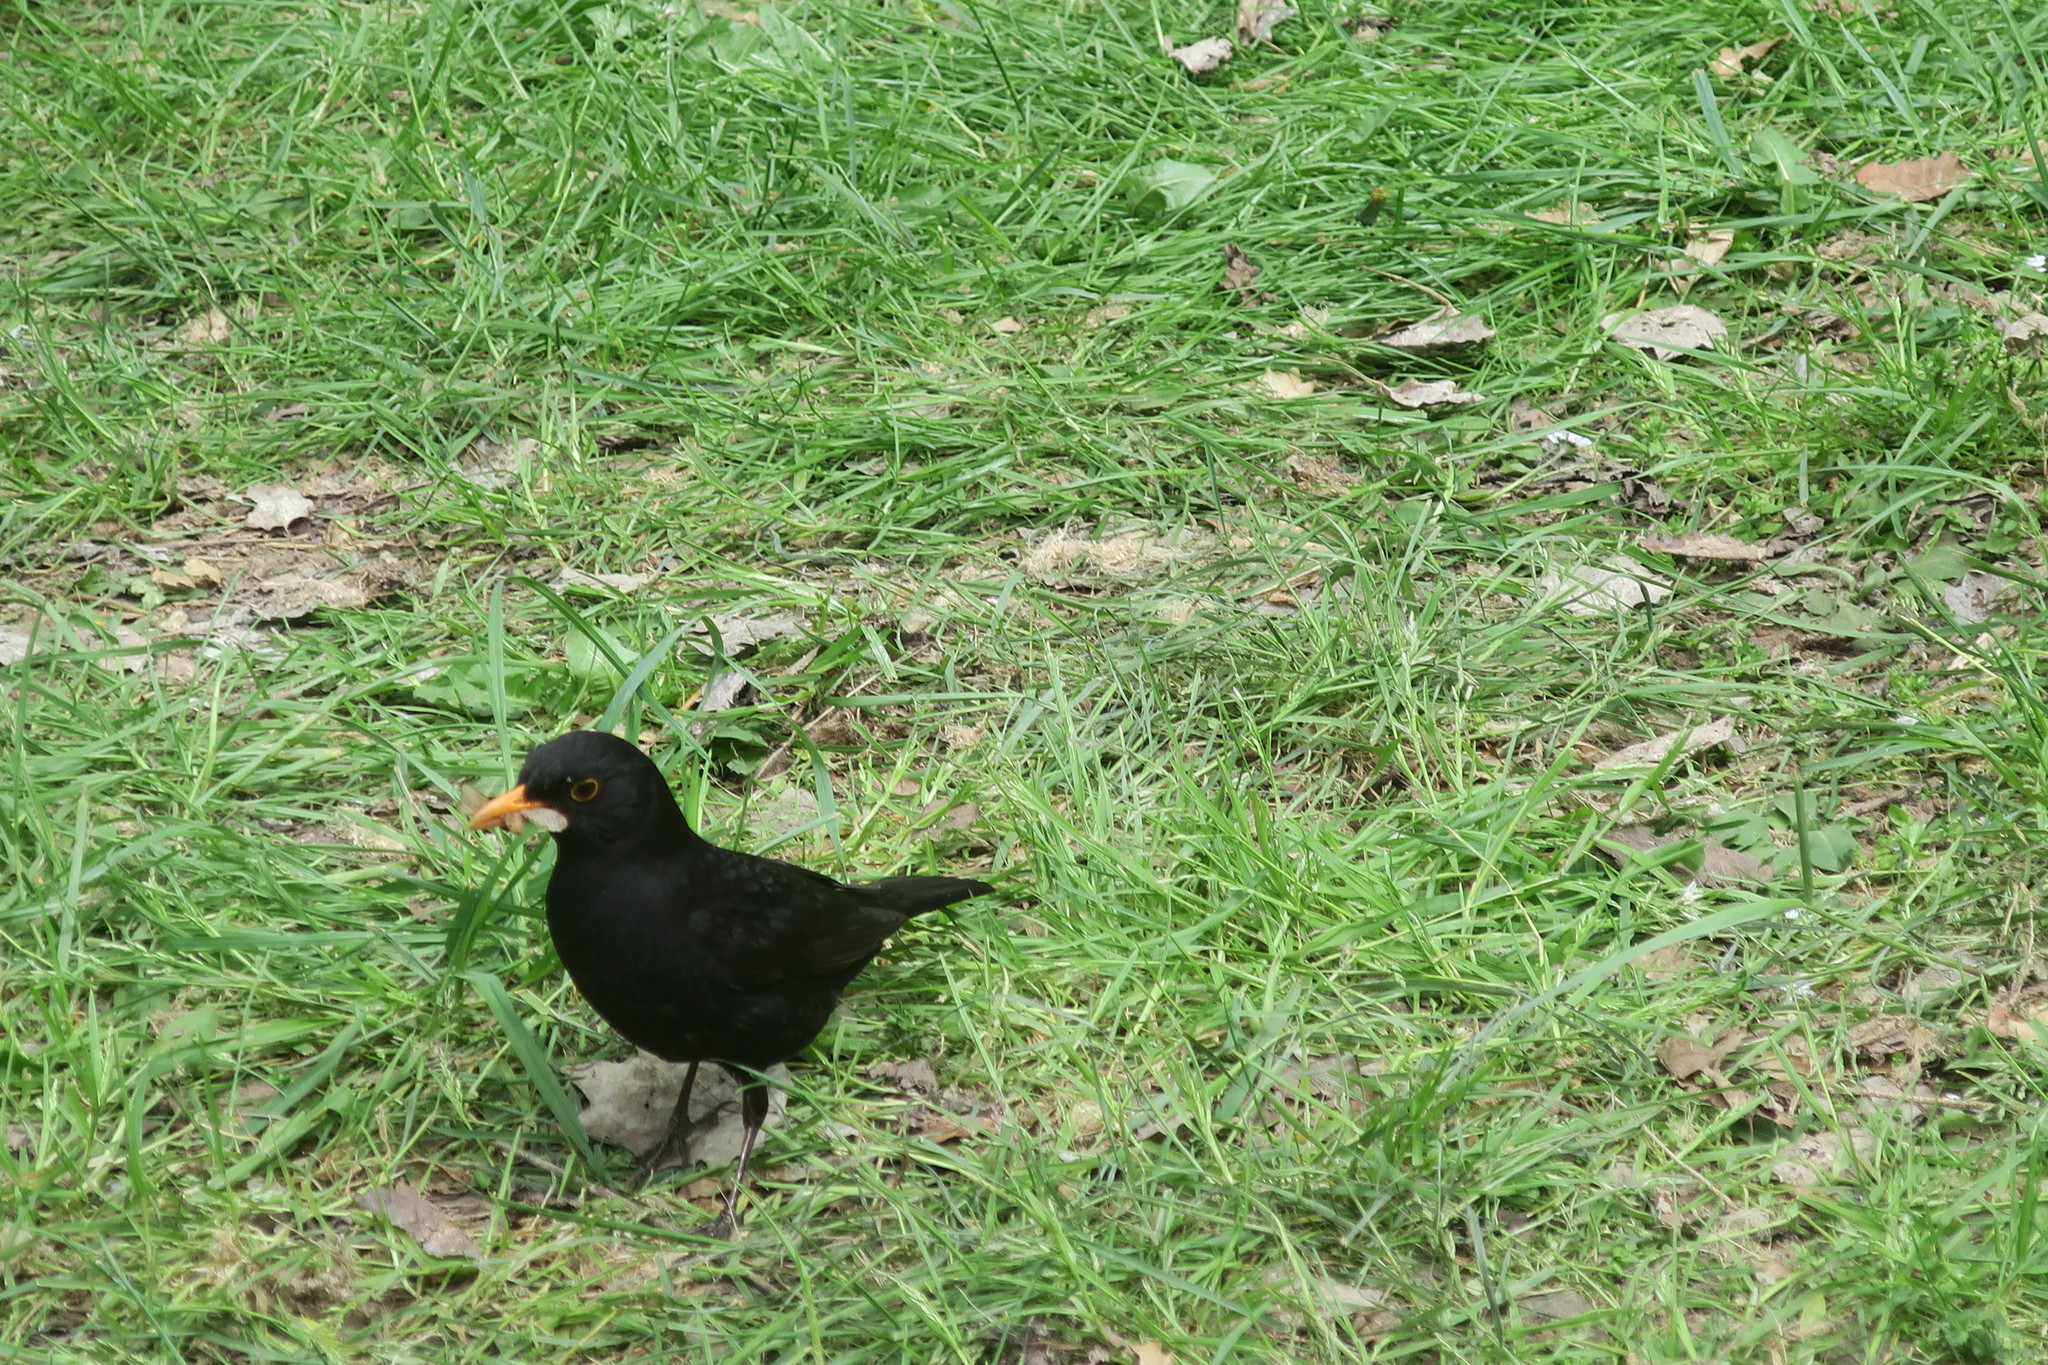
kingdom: Animalia
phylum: Chordata
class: Aves
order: Passeriformes
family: Turdidae
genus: Turdus
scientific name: Turdus merula
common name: Common blackbird
